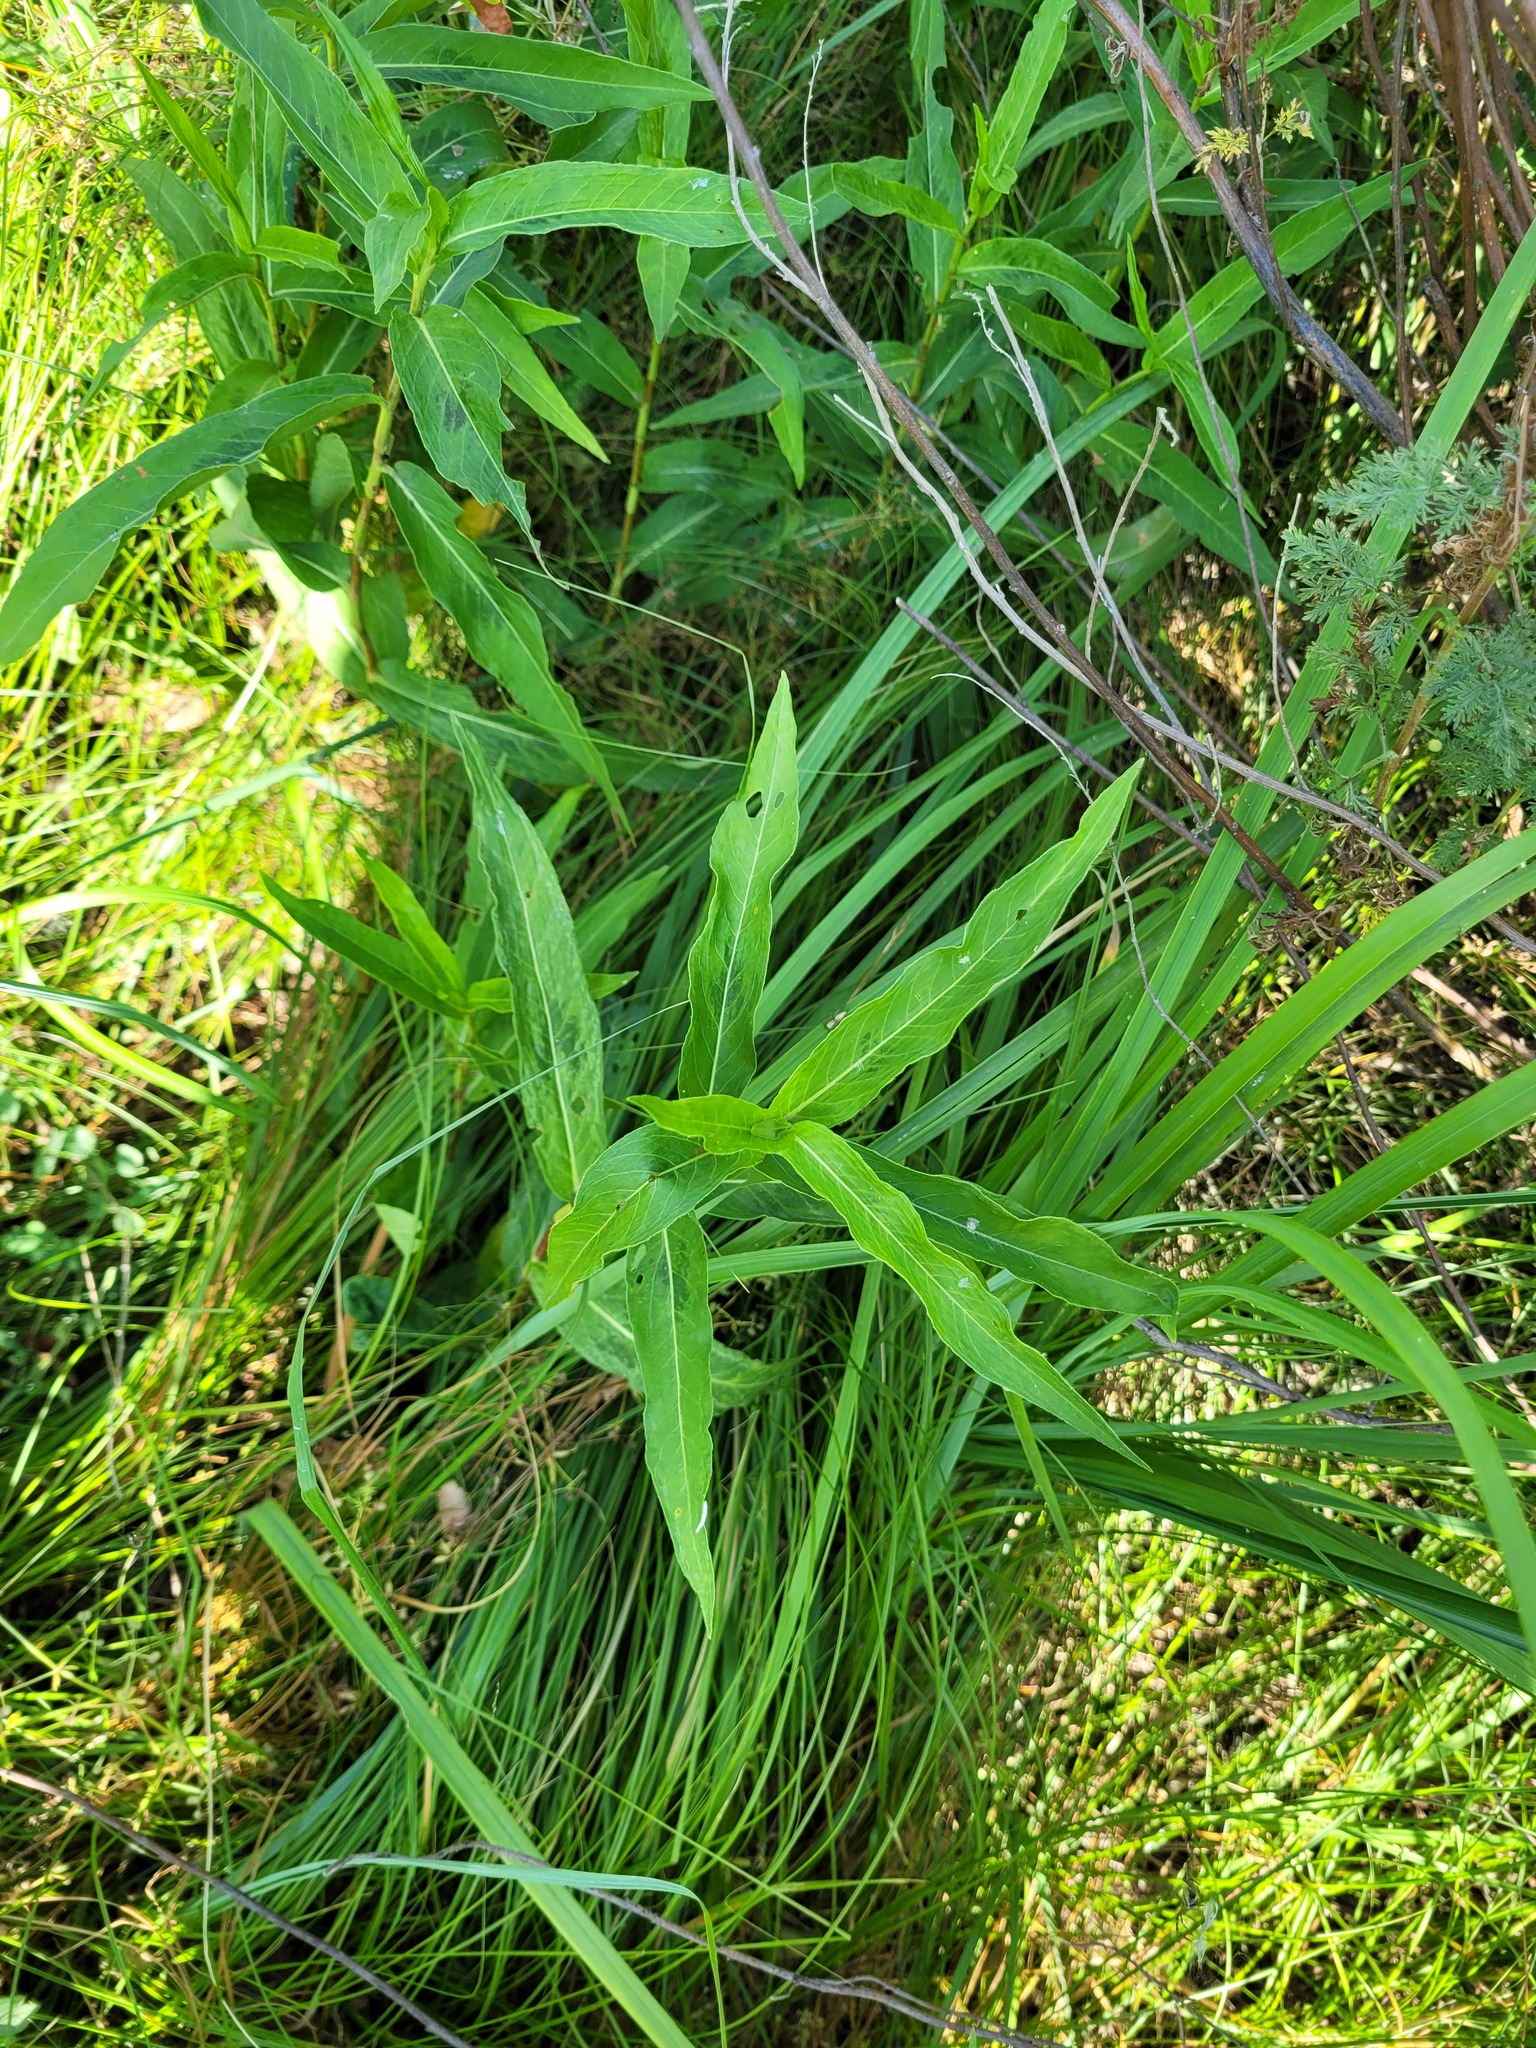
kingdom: Plantae
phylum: Tracheophyta
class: Magnoliopsida
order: Caryophyllales
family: Polygonaceae
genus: Persicaria
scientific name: Persicaria amphibia
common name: Amphibious bistort
